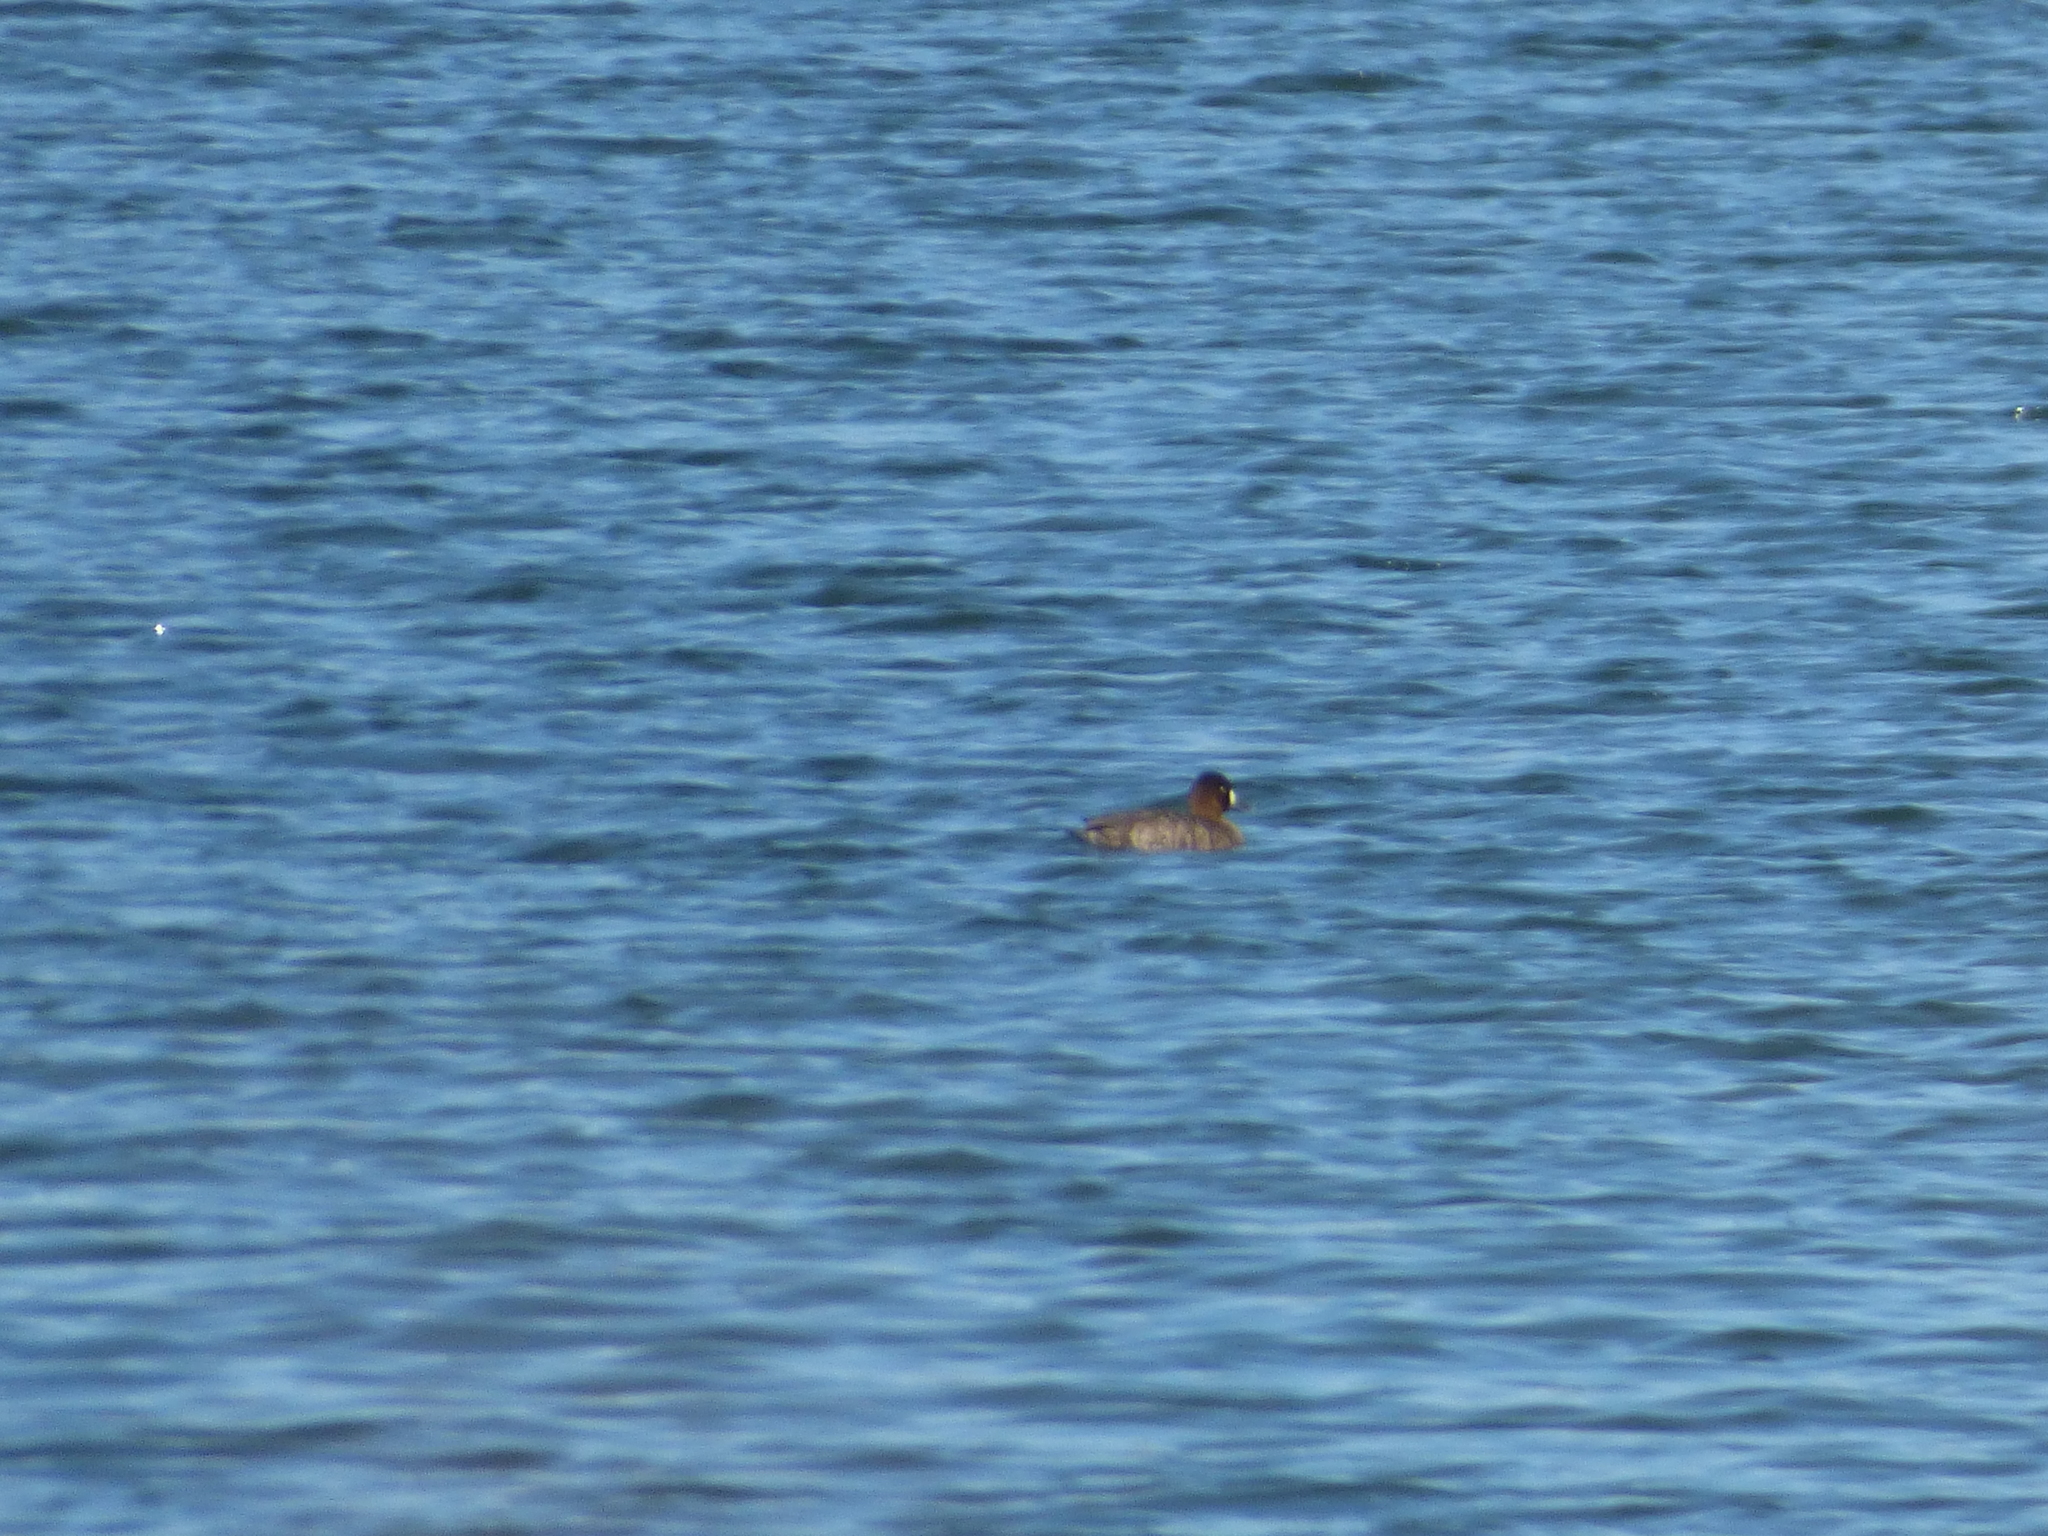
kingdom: Animalia
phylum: Chordata
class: Aves
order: Anseriformes
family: Anatidae
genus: Aythya
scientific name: Aythya affinis
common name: Lesser scaup
